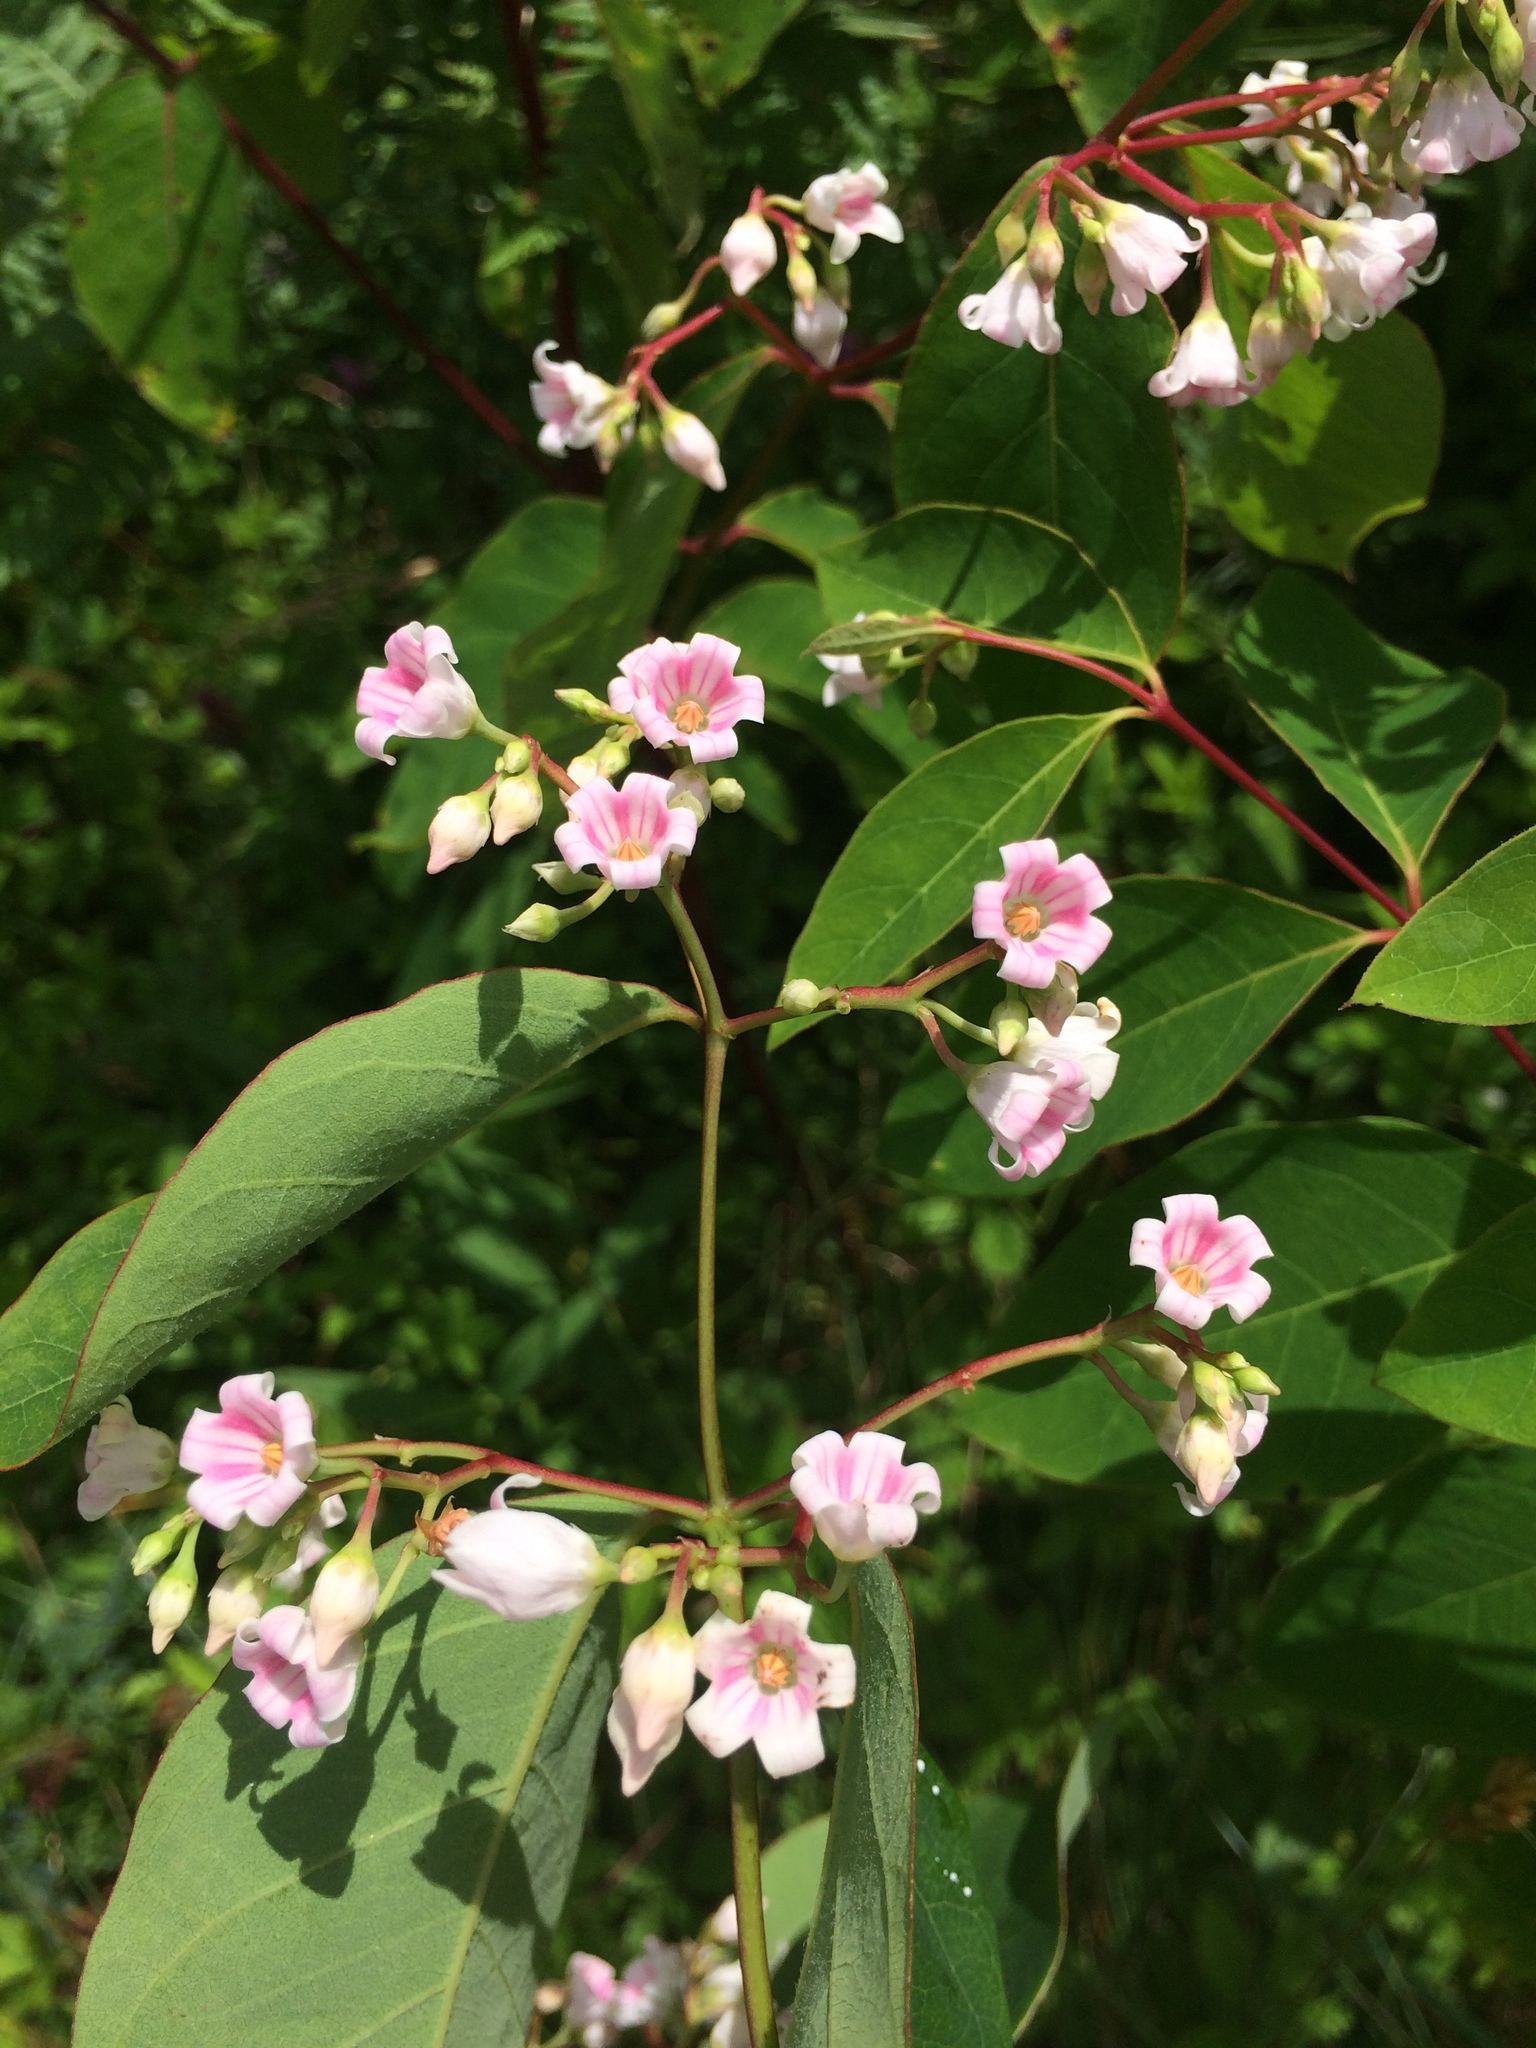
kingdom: Plantae
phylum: Tracheophyta
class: Magnoliopsida
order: Gentianales
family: Apocynaceae
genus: Apocynum
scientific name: Apocynum androsaemifolium
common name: Spreading dogbane
